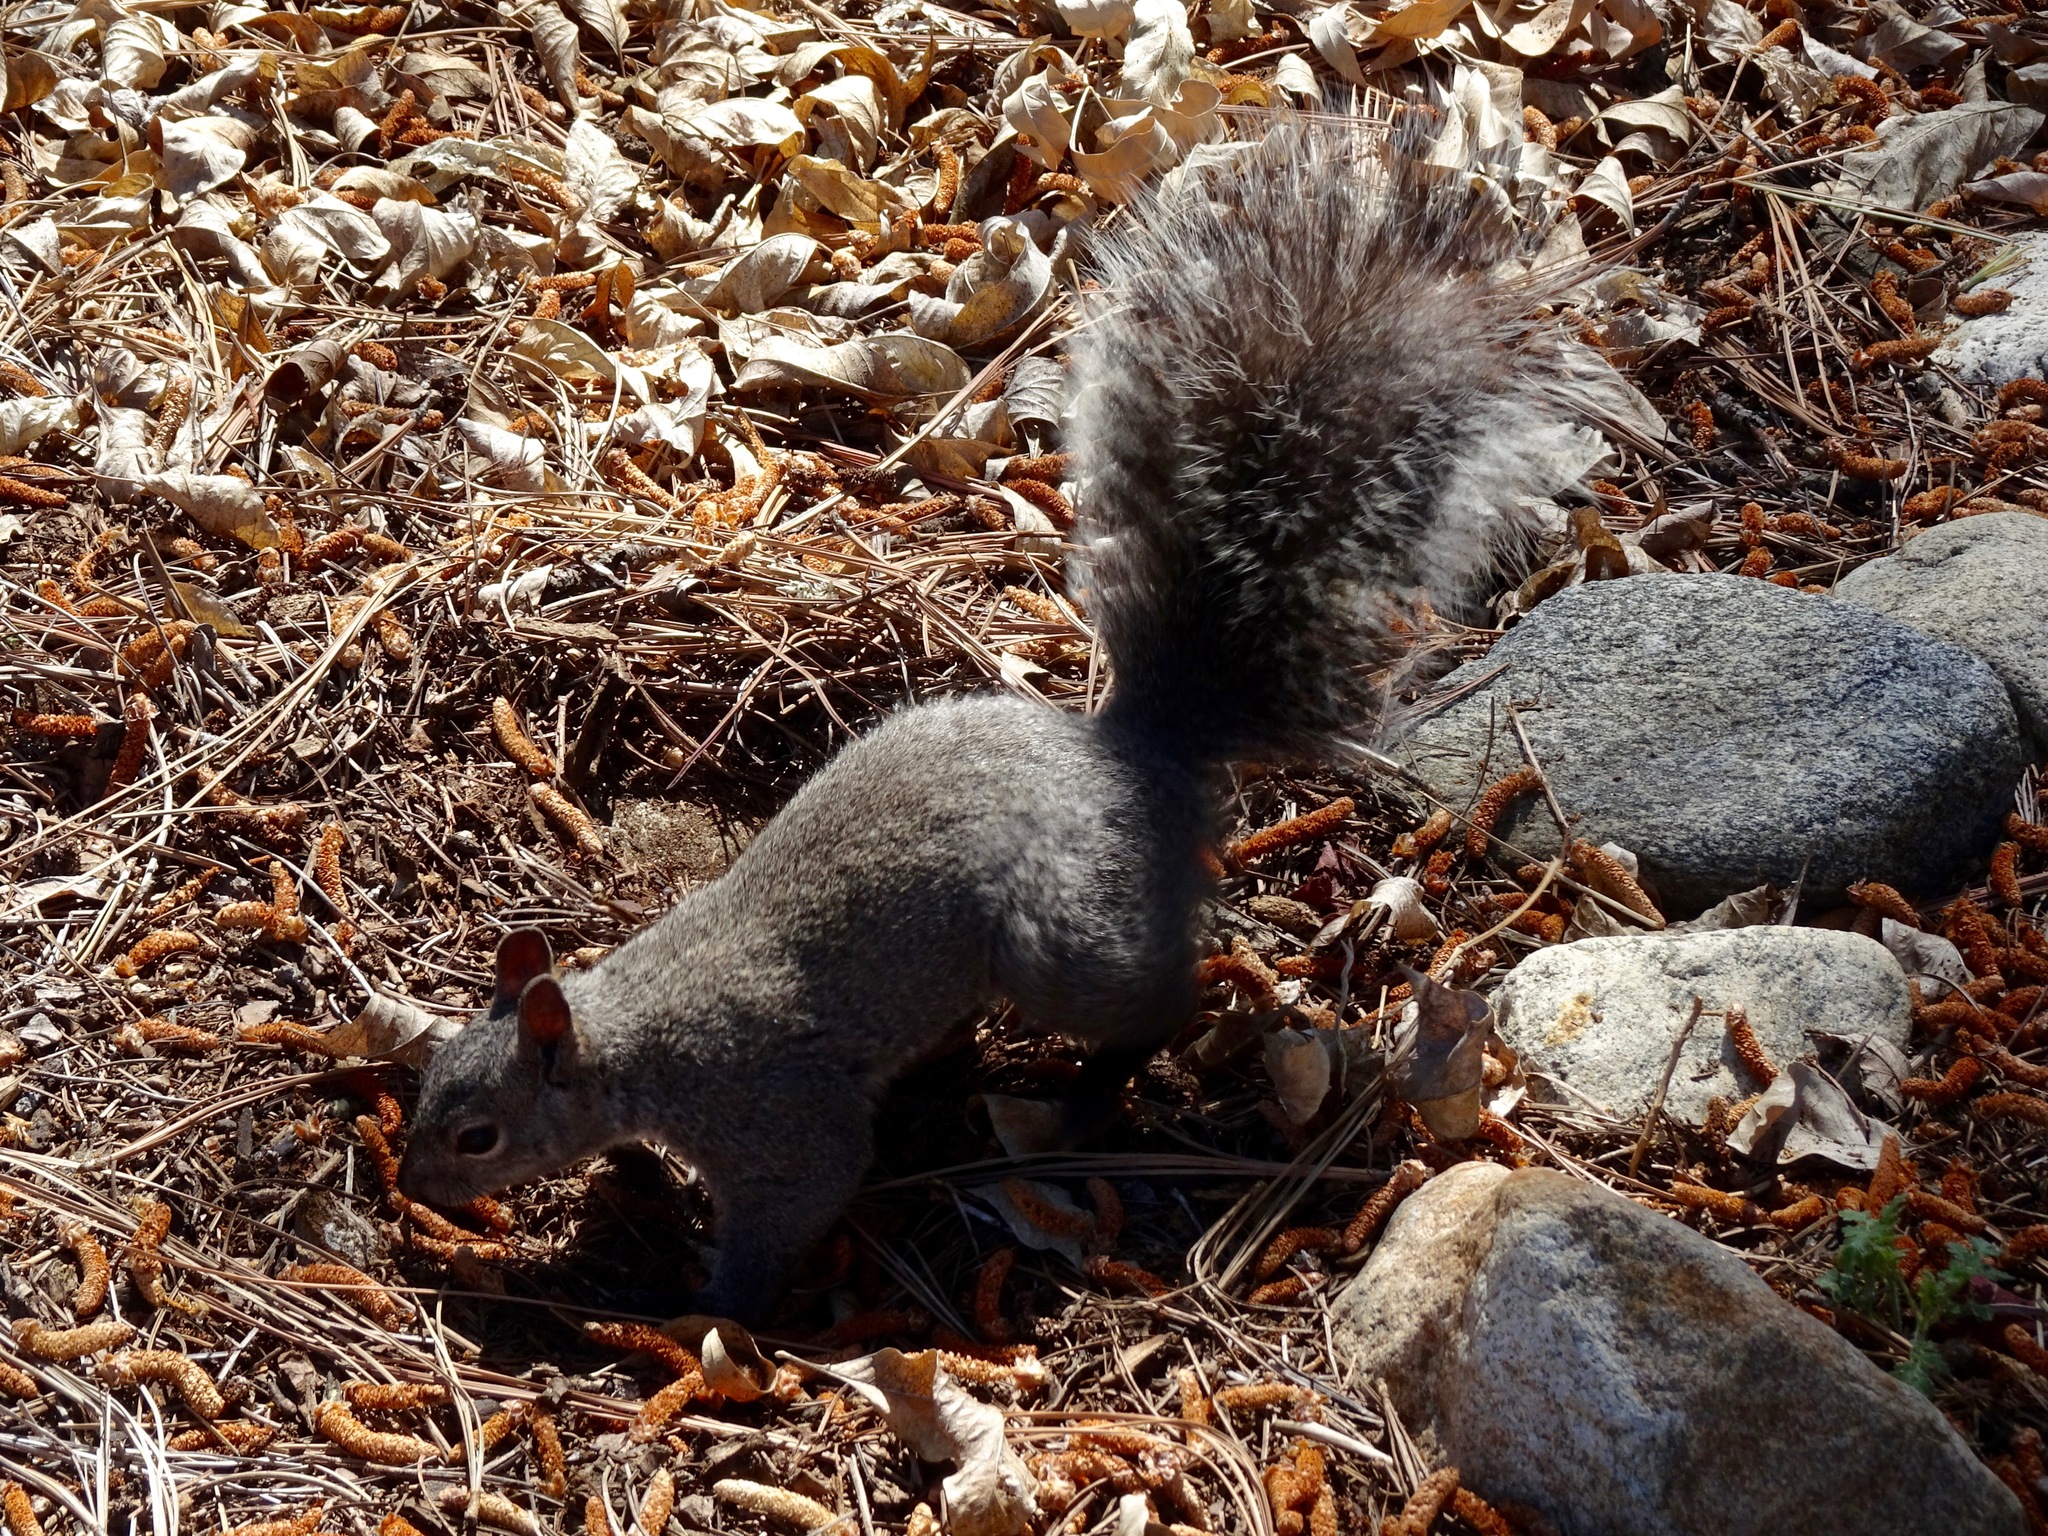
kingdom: Animalia
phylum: Chordata
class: Mammalia
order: Rodentia
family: Sciuridae
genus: Sciurus
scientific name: Sciurus griseus
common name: Western gray squirrel
